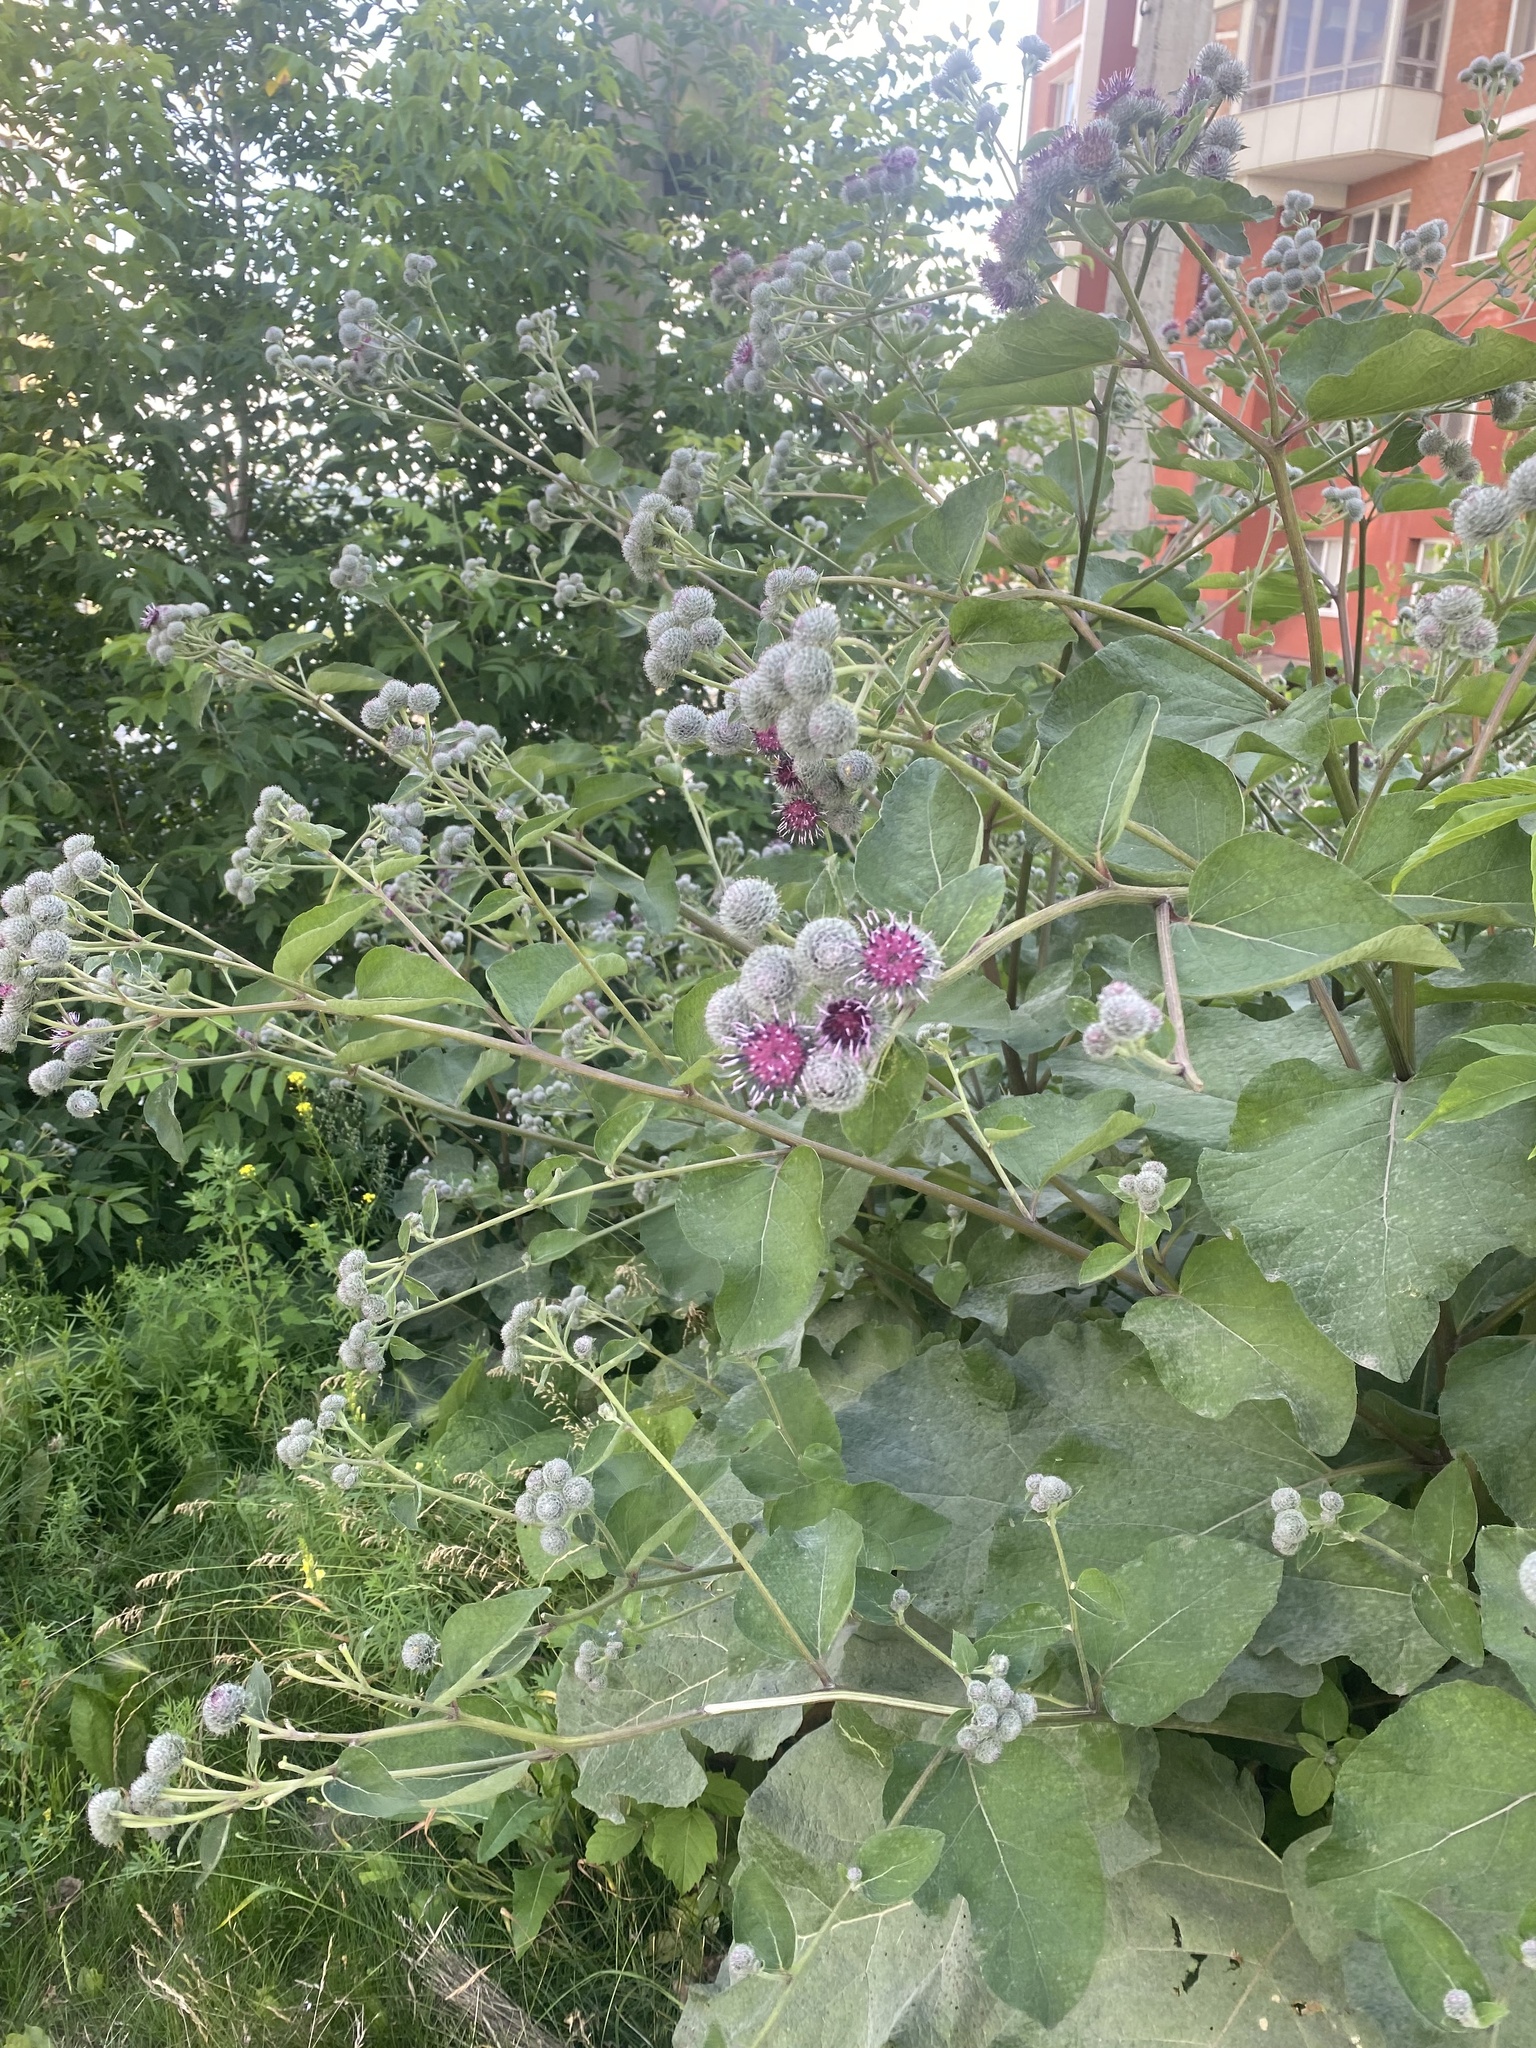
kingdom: Plantae
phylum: Tracheophyta
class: Magnoliopsida
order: Asterales
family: Asteraceae
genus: Arctium
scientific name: Arctium tomentosum
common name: Woolly burdock
